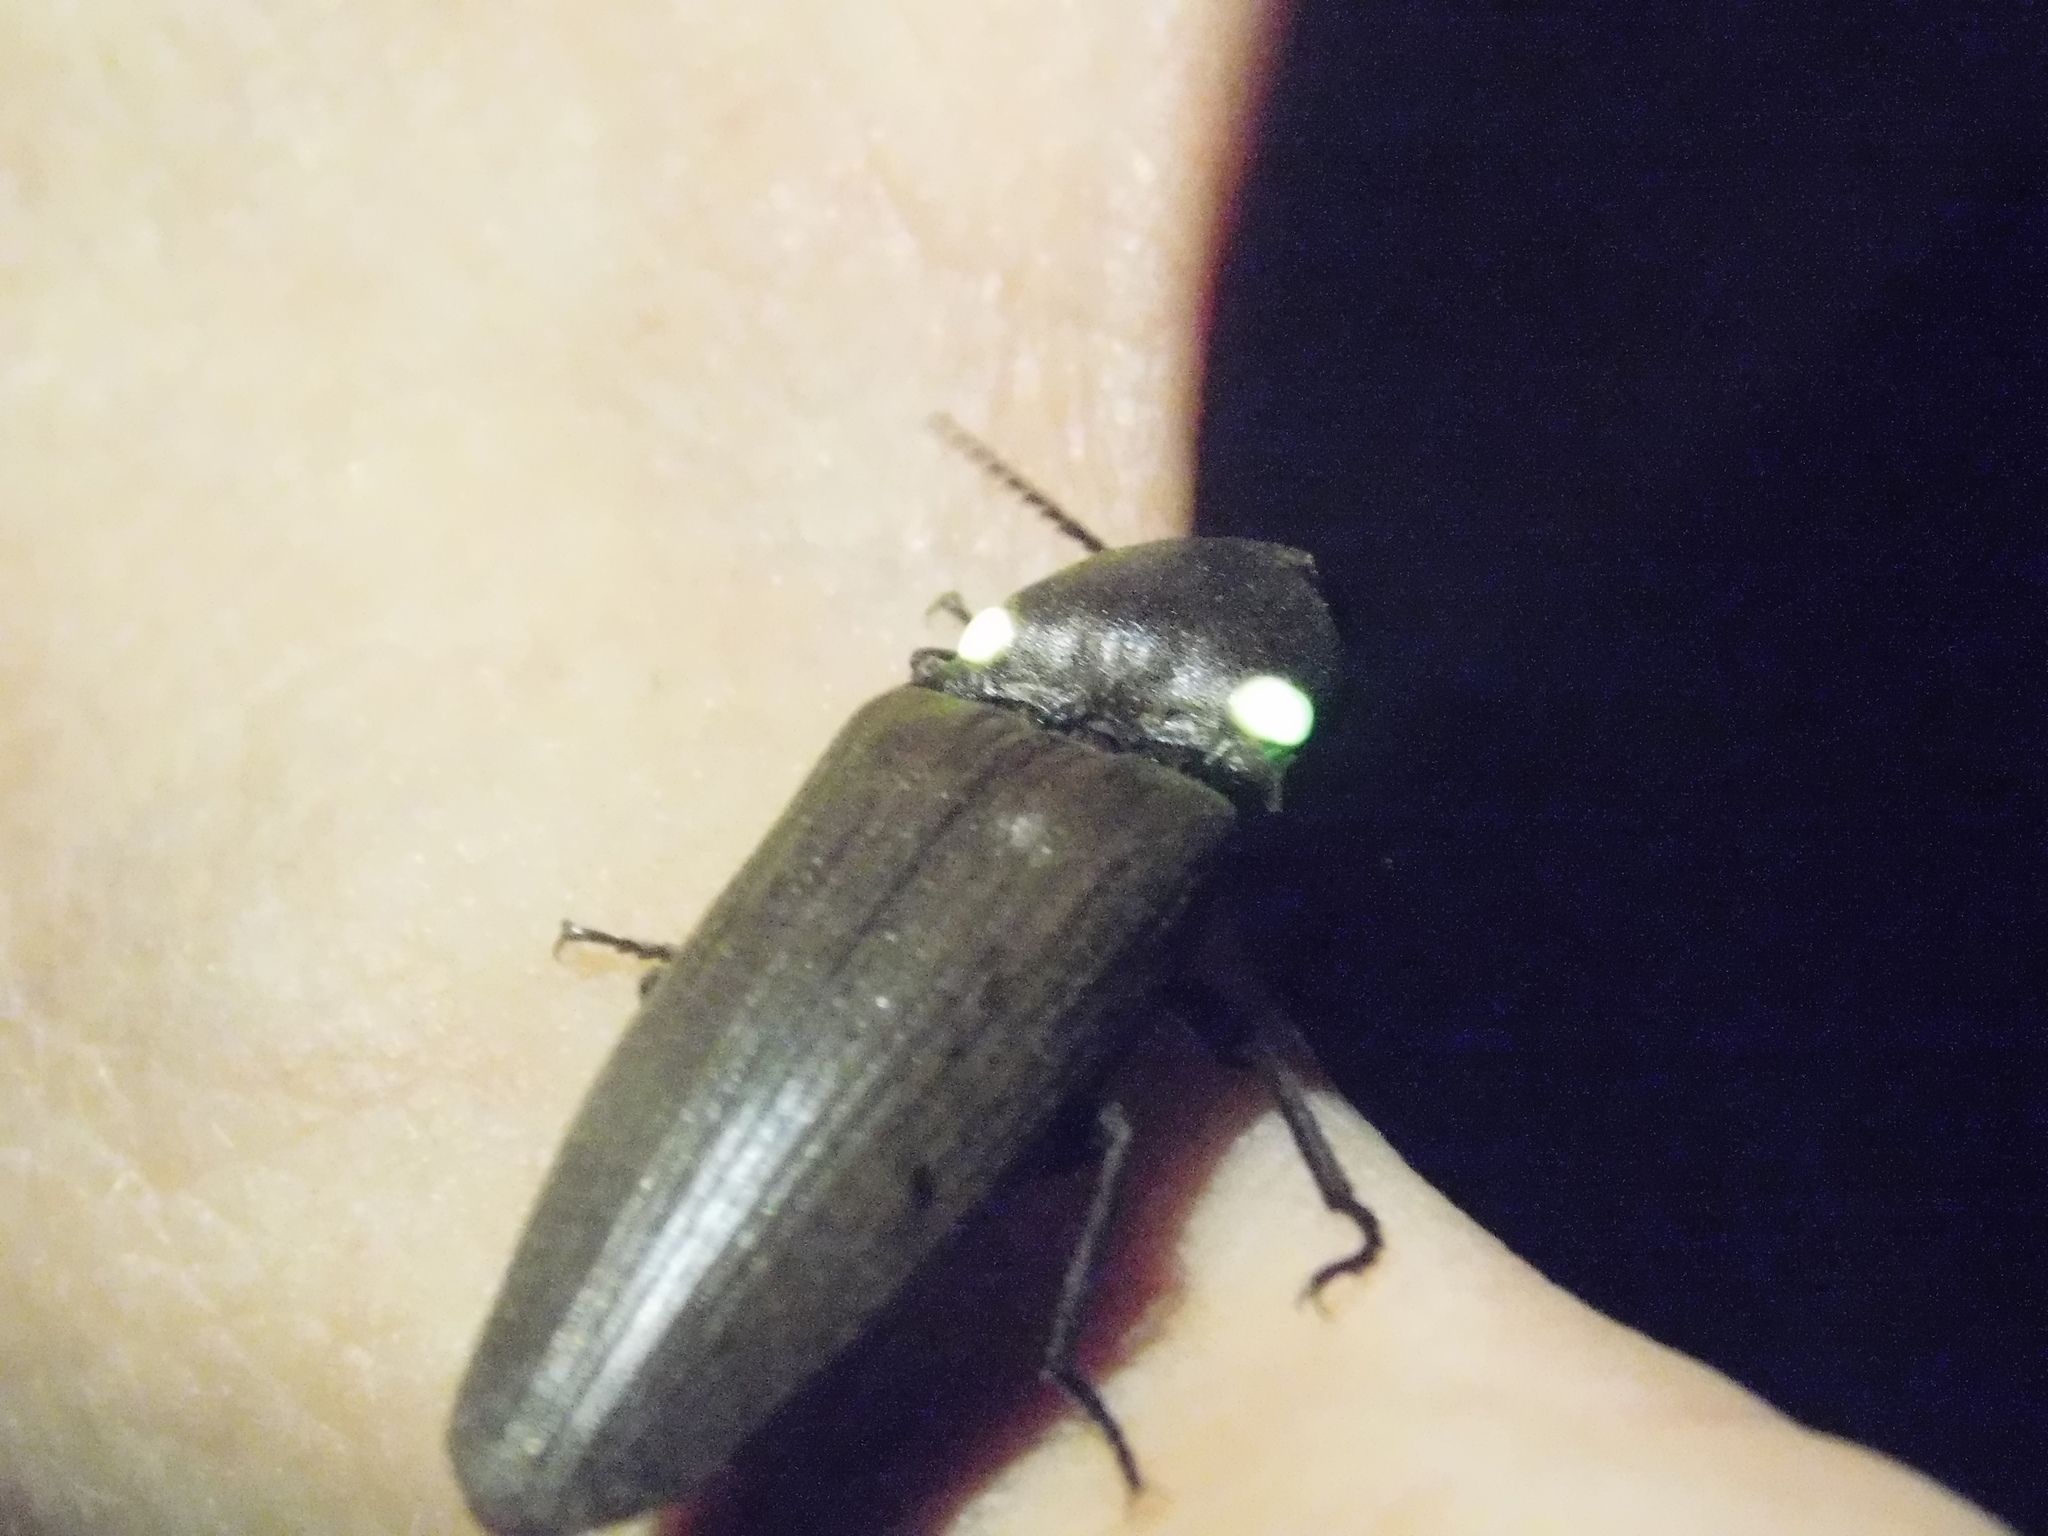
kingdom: Animalia
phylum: Arthropoda
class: Insecta
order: Coleoptera
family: Elateridae
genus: Pyrophorus
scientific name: Pyrophorus
